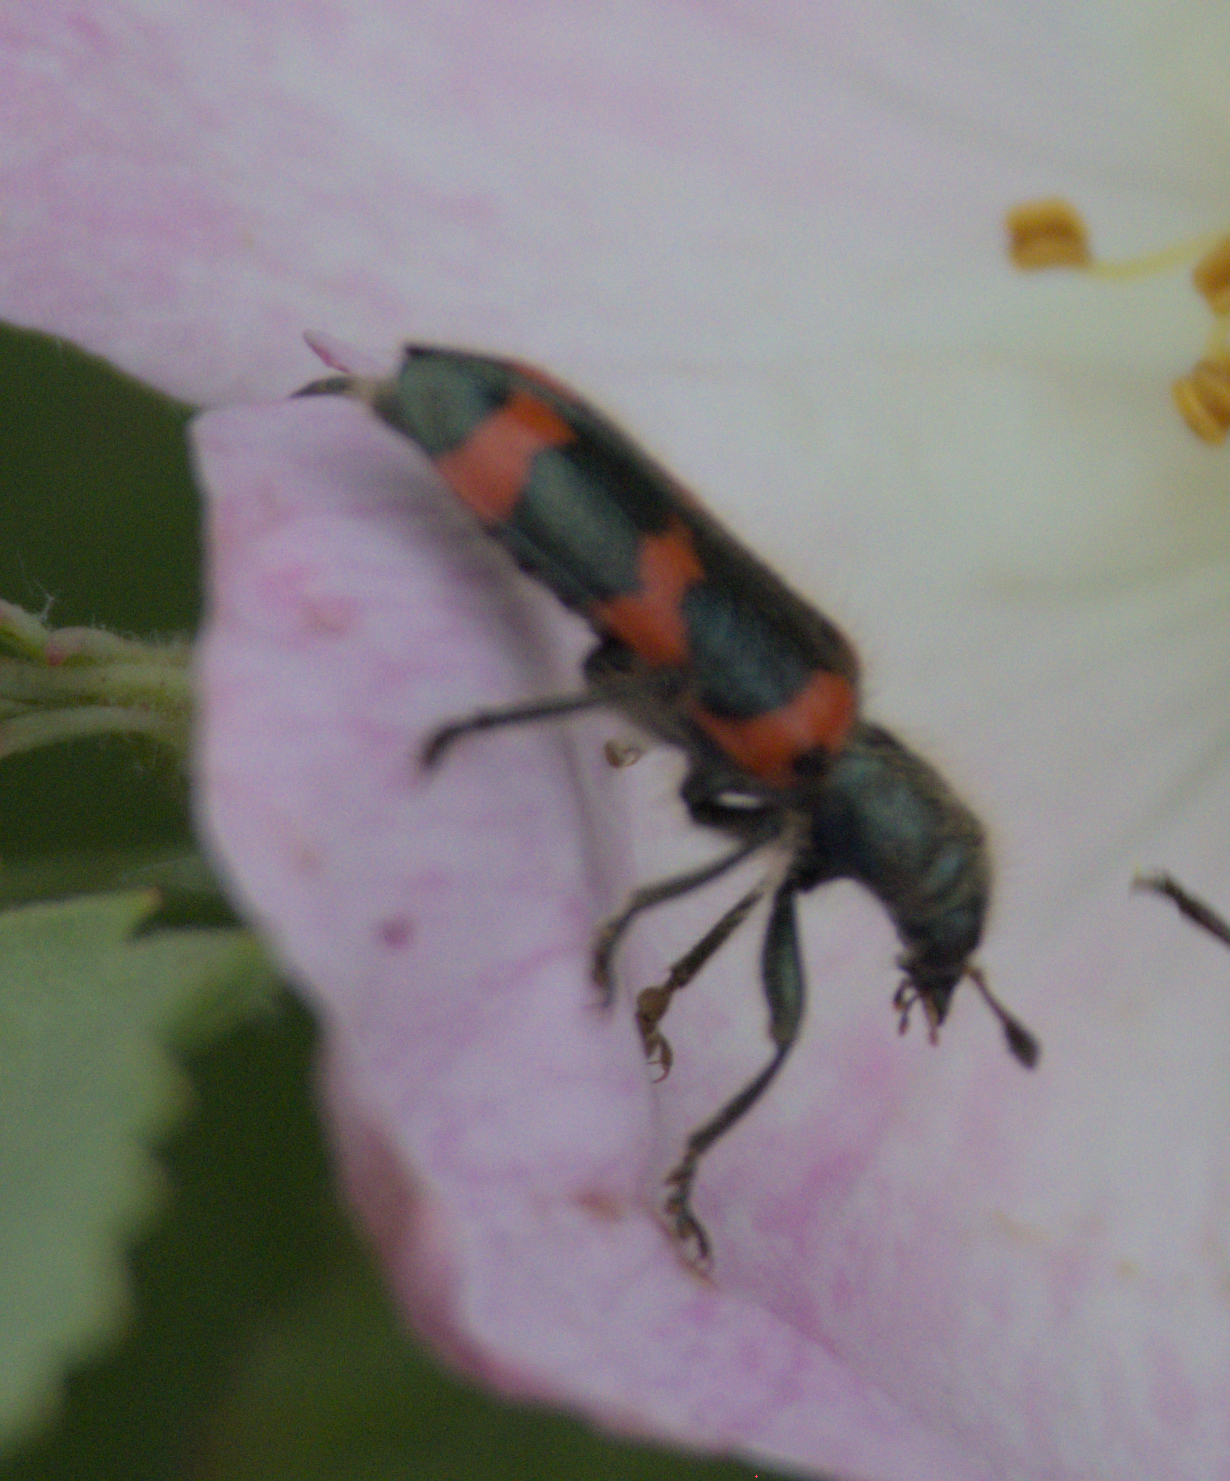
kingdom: Animalia
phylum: Arthropoda
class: Insecta
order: Coleoptera
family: Cleridae
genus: Trichodes
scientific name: Trichodes nutalli
